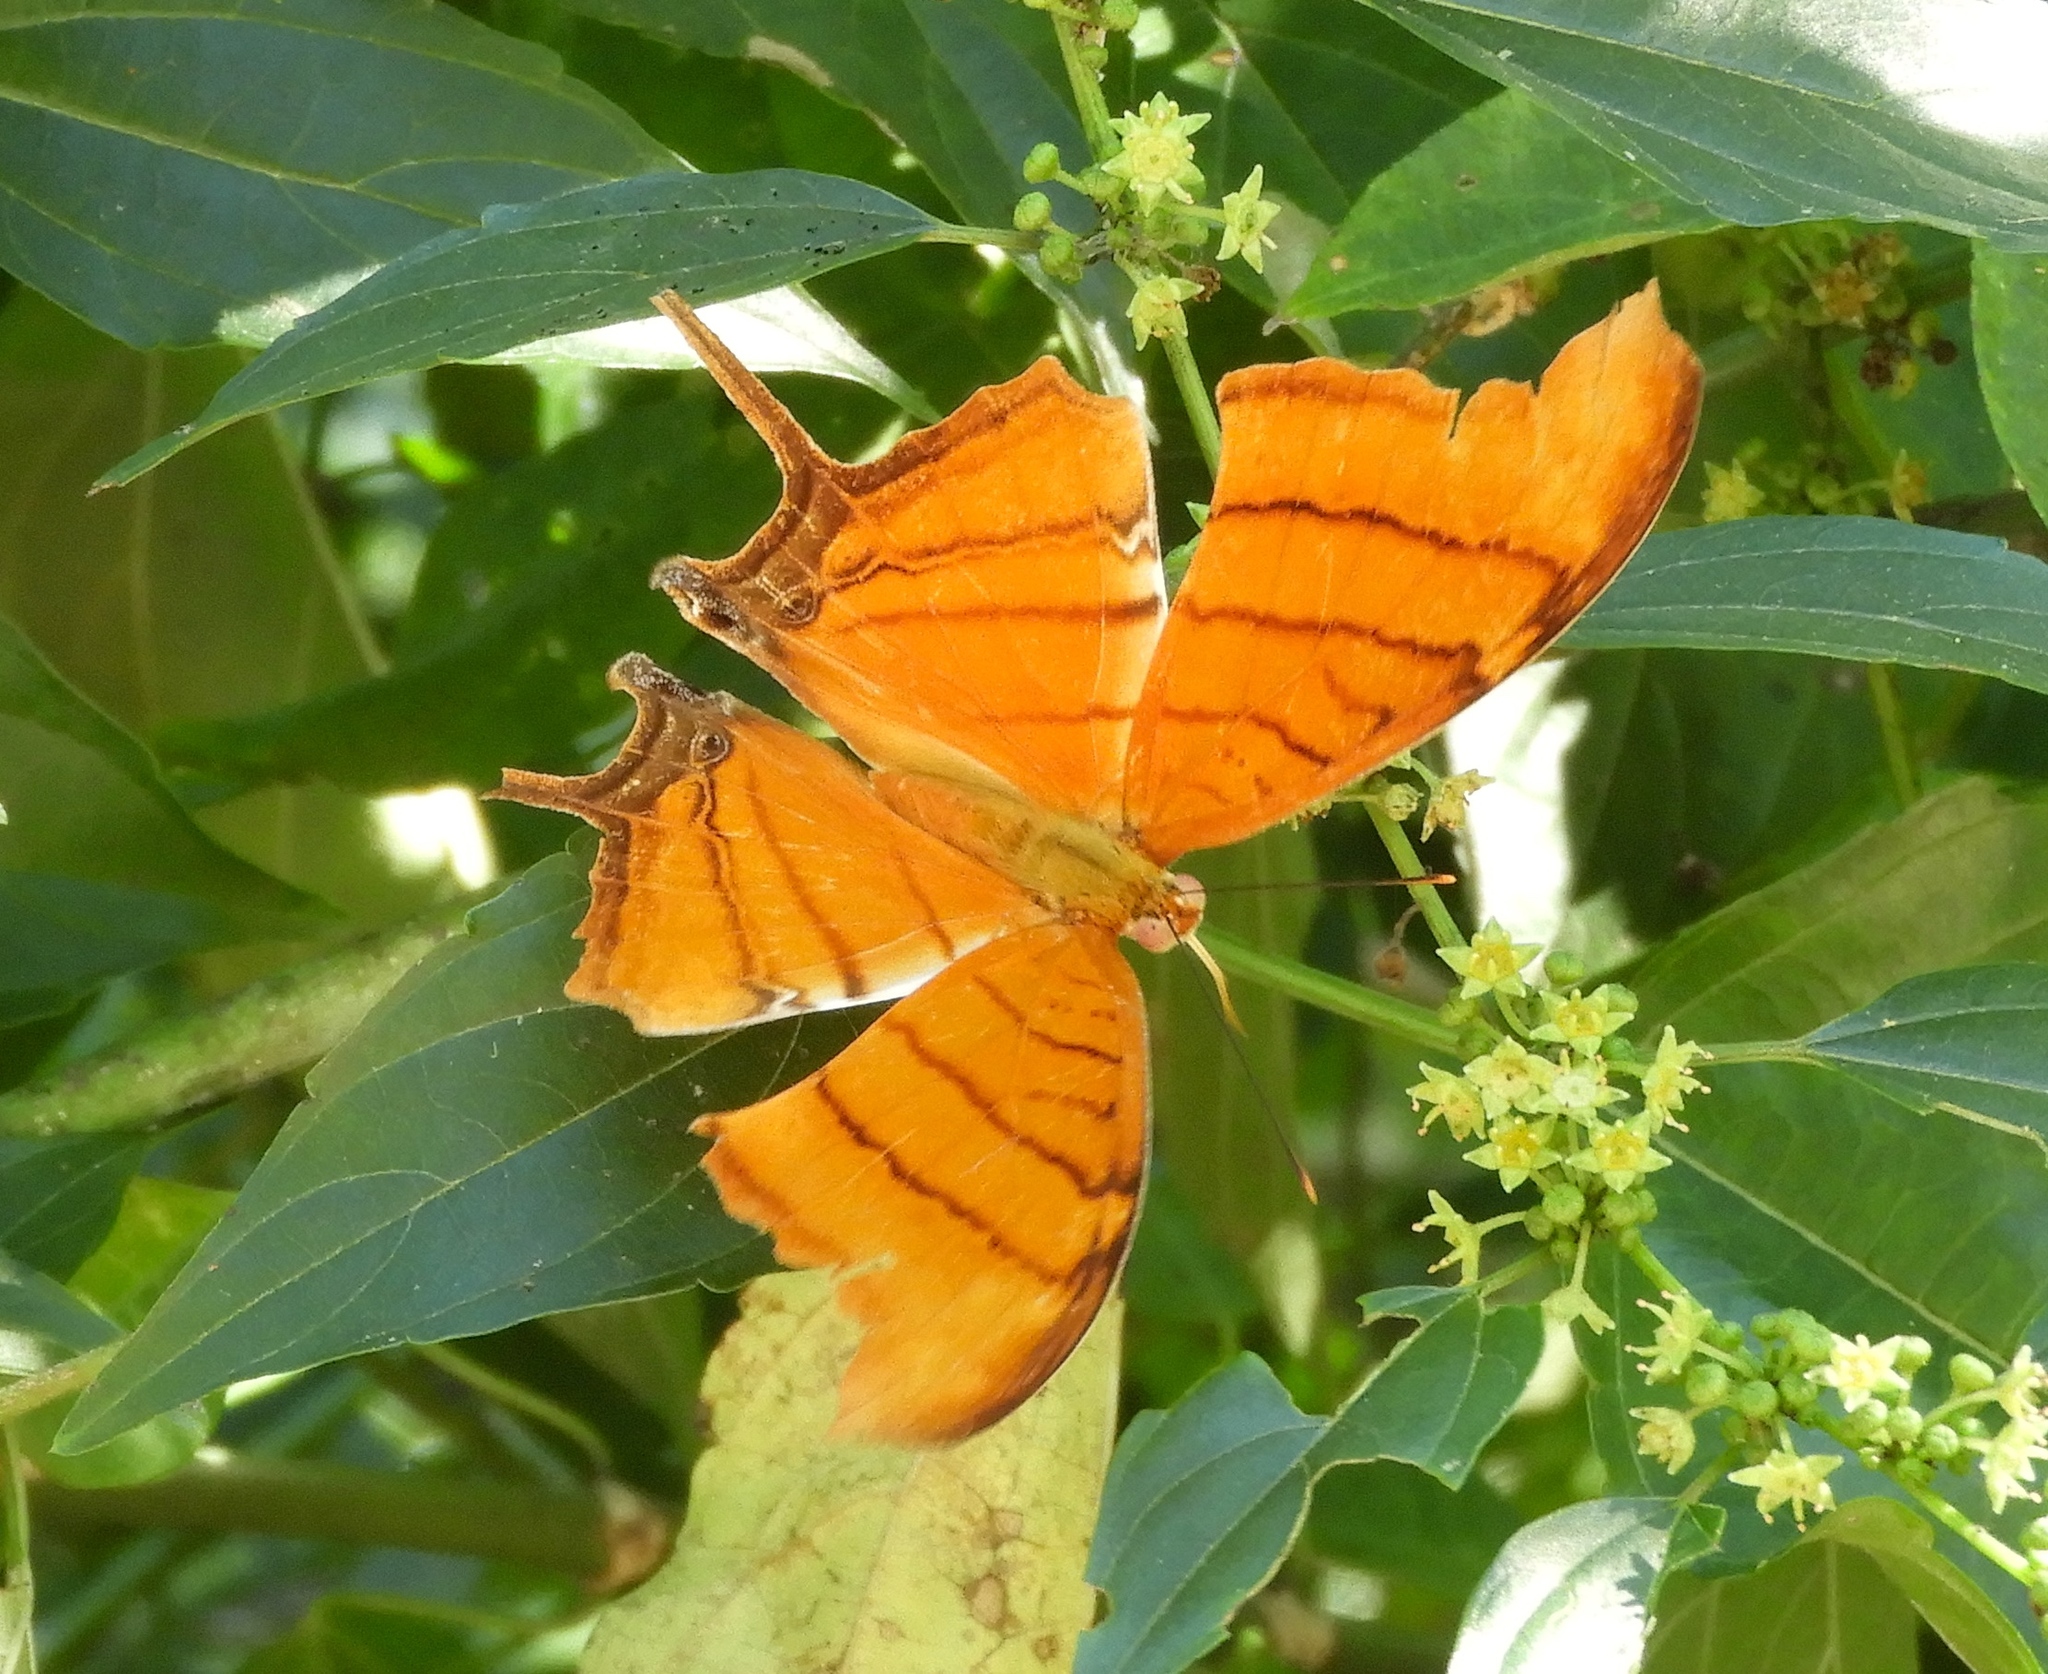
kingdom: Animalia
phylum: Arthropoda
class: Insecta
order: Lepidoptera
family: Nymphalidae
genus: Marpesia
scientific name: Marpesia petreus
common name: Red dagger wing
